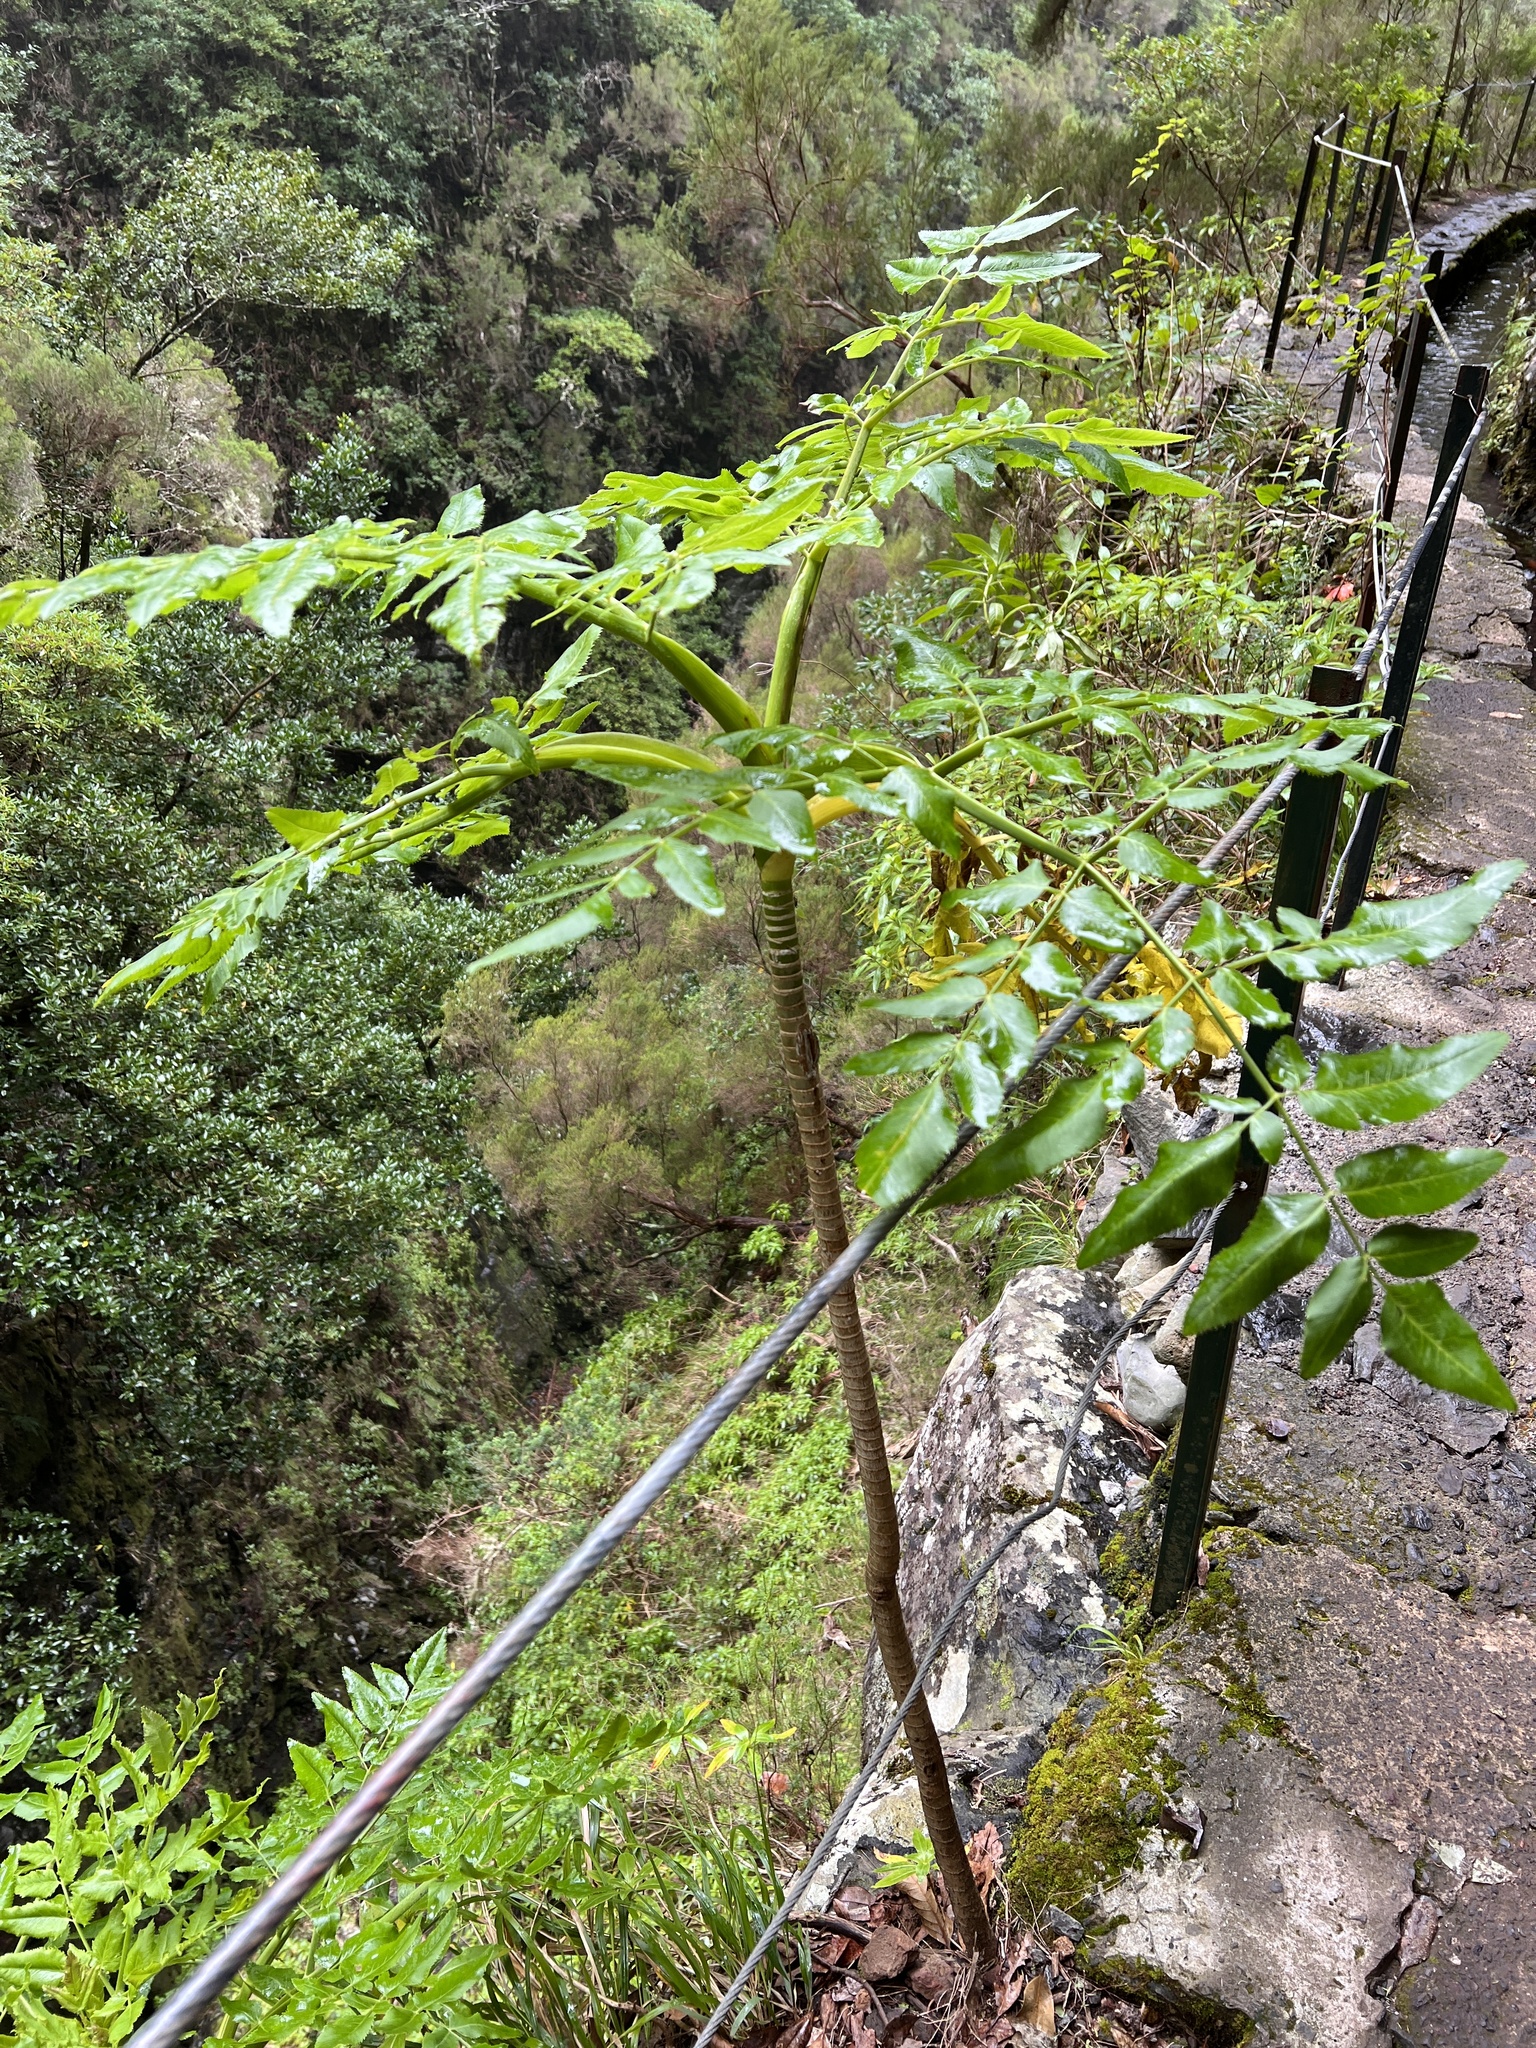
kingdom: Plantae
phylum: Tracheophyta
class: Magnoliopsida
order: Apiales
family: Apiaceae
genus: Daucus
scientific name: Daucus decipiens
